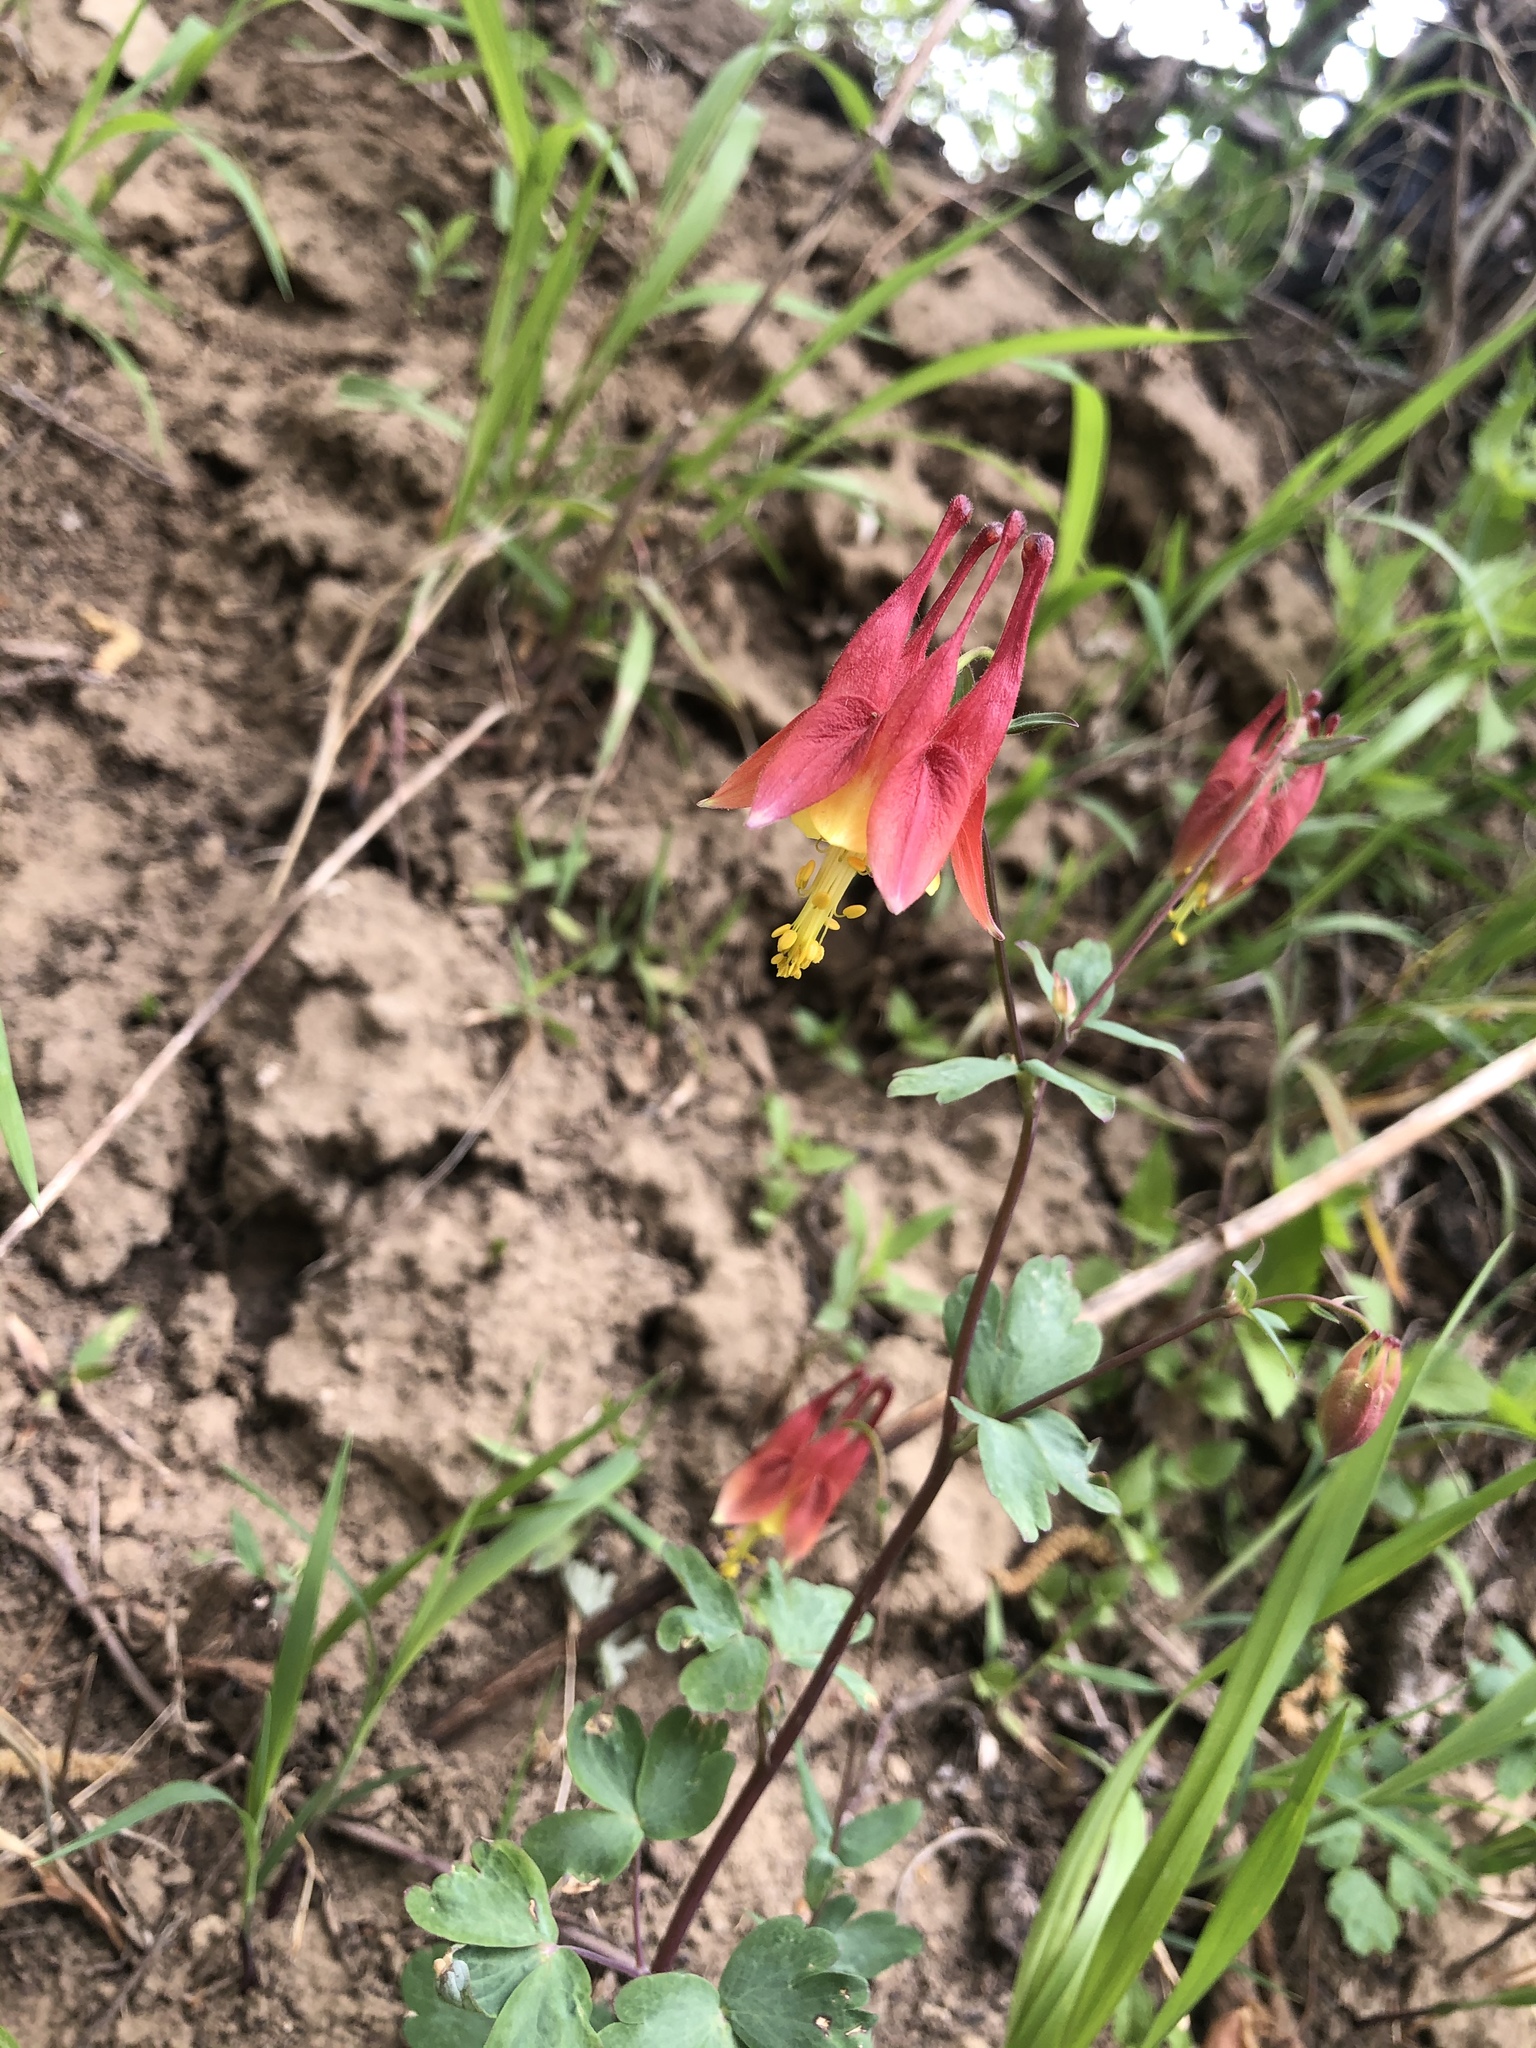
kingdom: Plantae
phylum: Tracheophyta
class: Magnoliopsida
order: Ranunculales
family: Ranunculaceae
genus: Aquilegia
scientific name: Aquilegia canadensis
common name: American columbine
